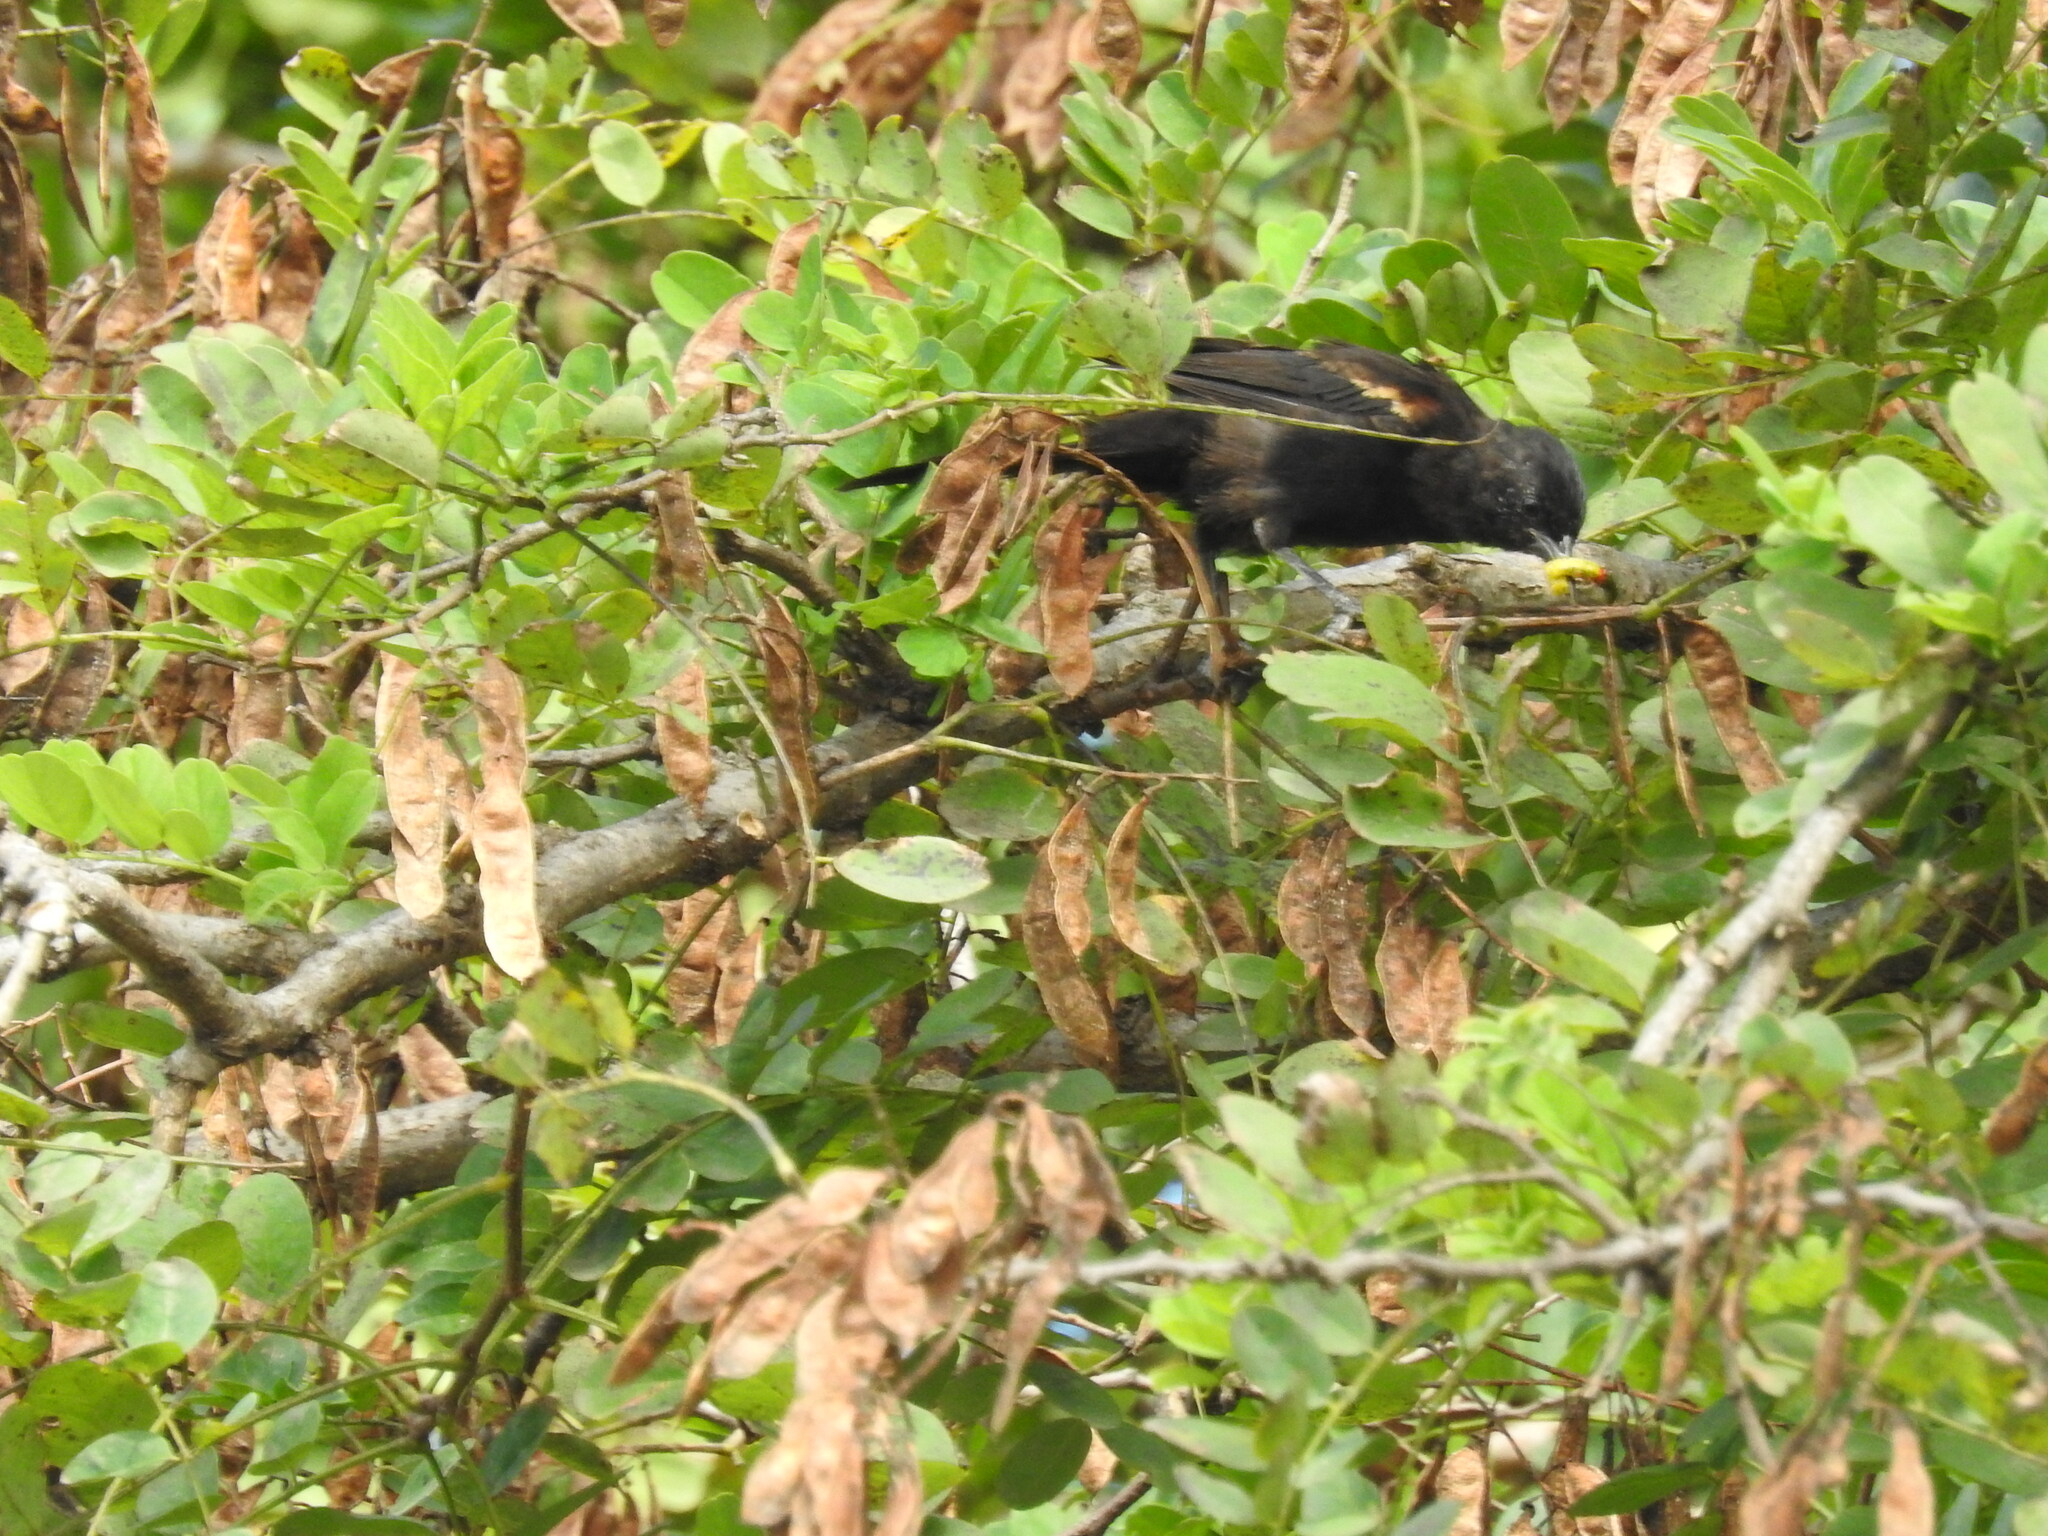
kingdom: Animalia
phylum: Chordata
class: Aves
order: Passeriformes
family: Icteridae
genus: Icterus
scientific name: Icterus cayanensis
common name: Epaulet oriole
